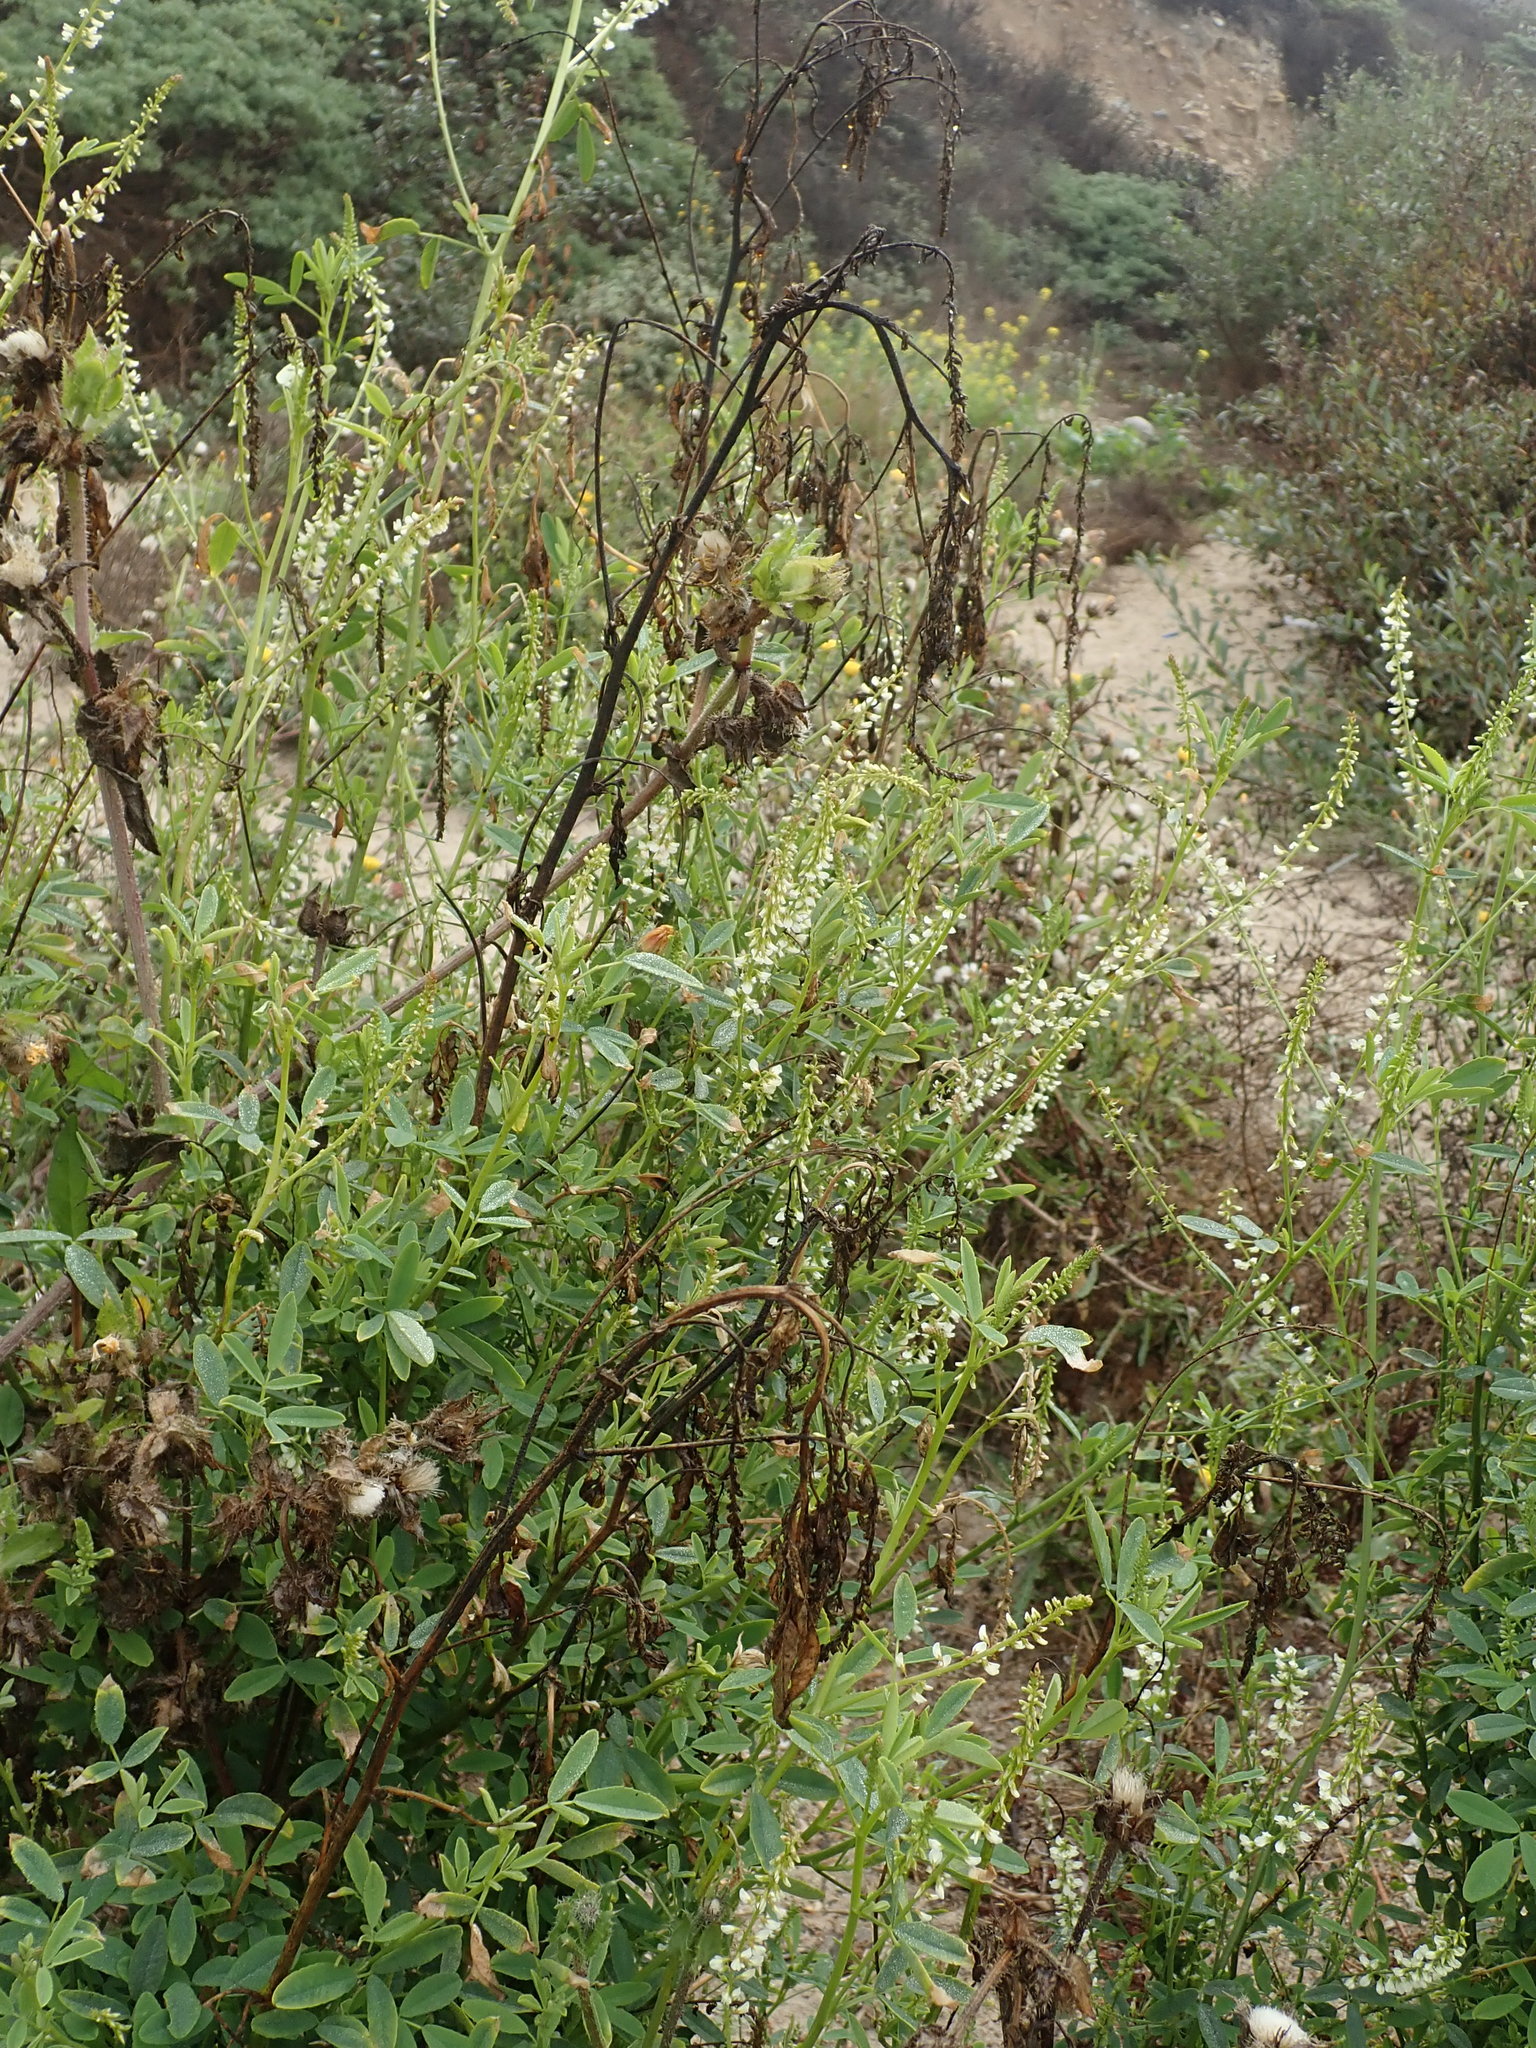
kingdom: Plantae
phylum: Tracheophyta
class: Magnoliopsida
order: Fabales
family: Fabaceae
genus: Melilotus
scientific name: Melilotus albus
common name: White melilot
